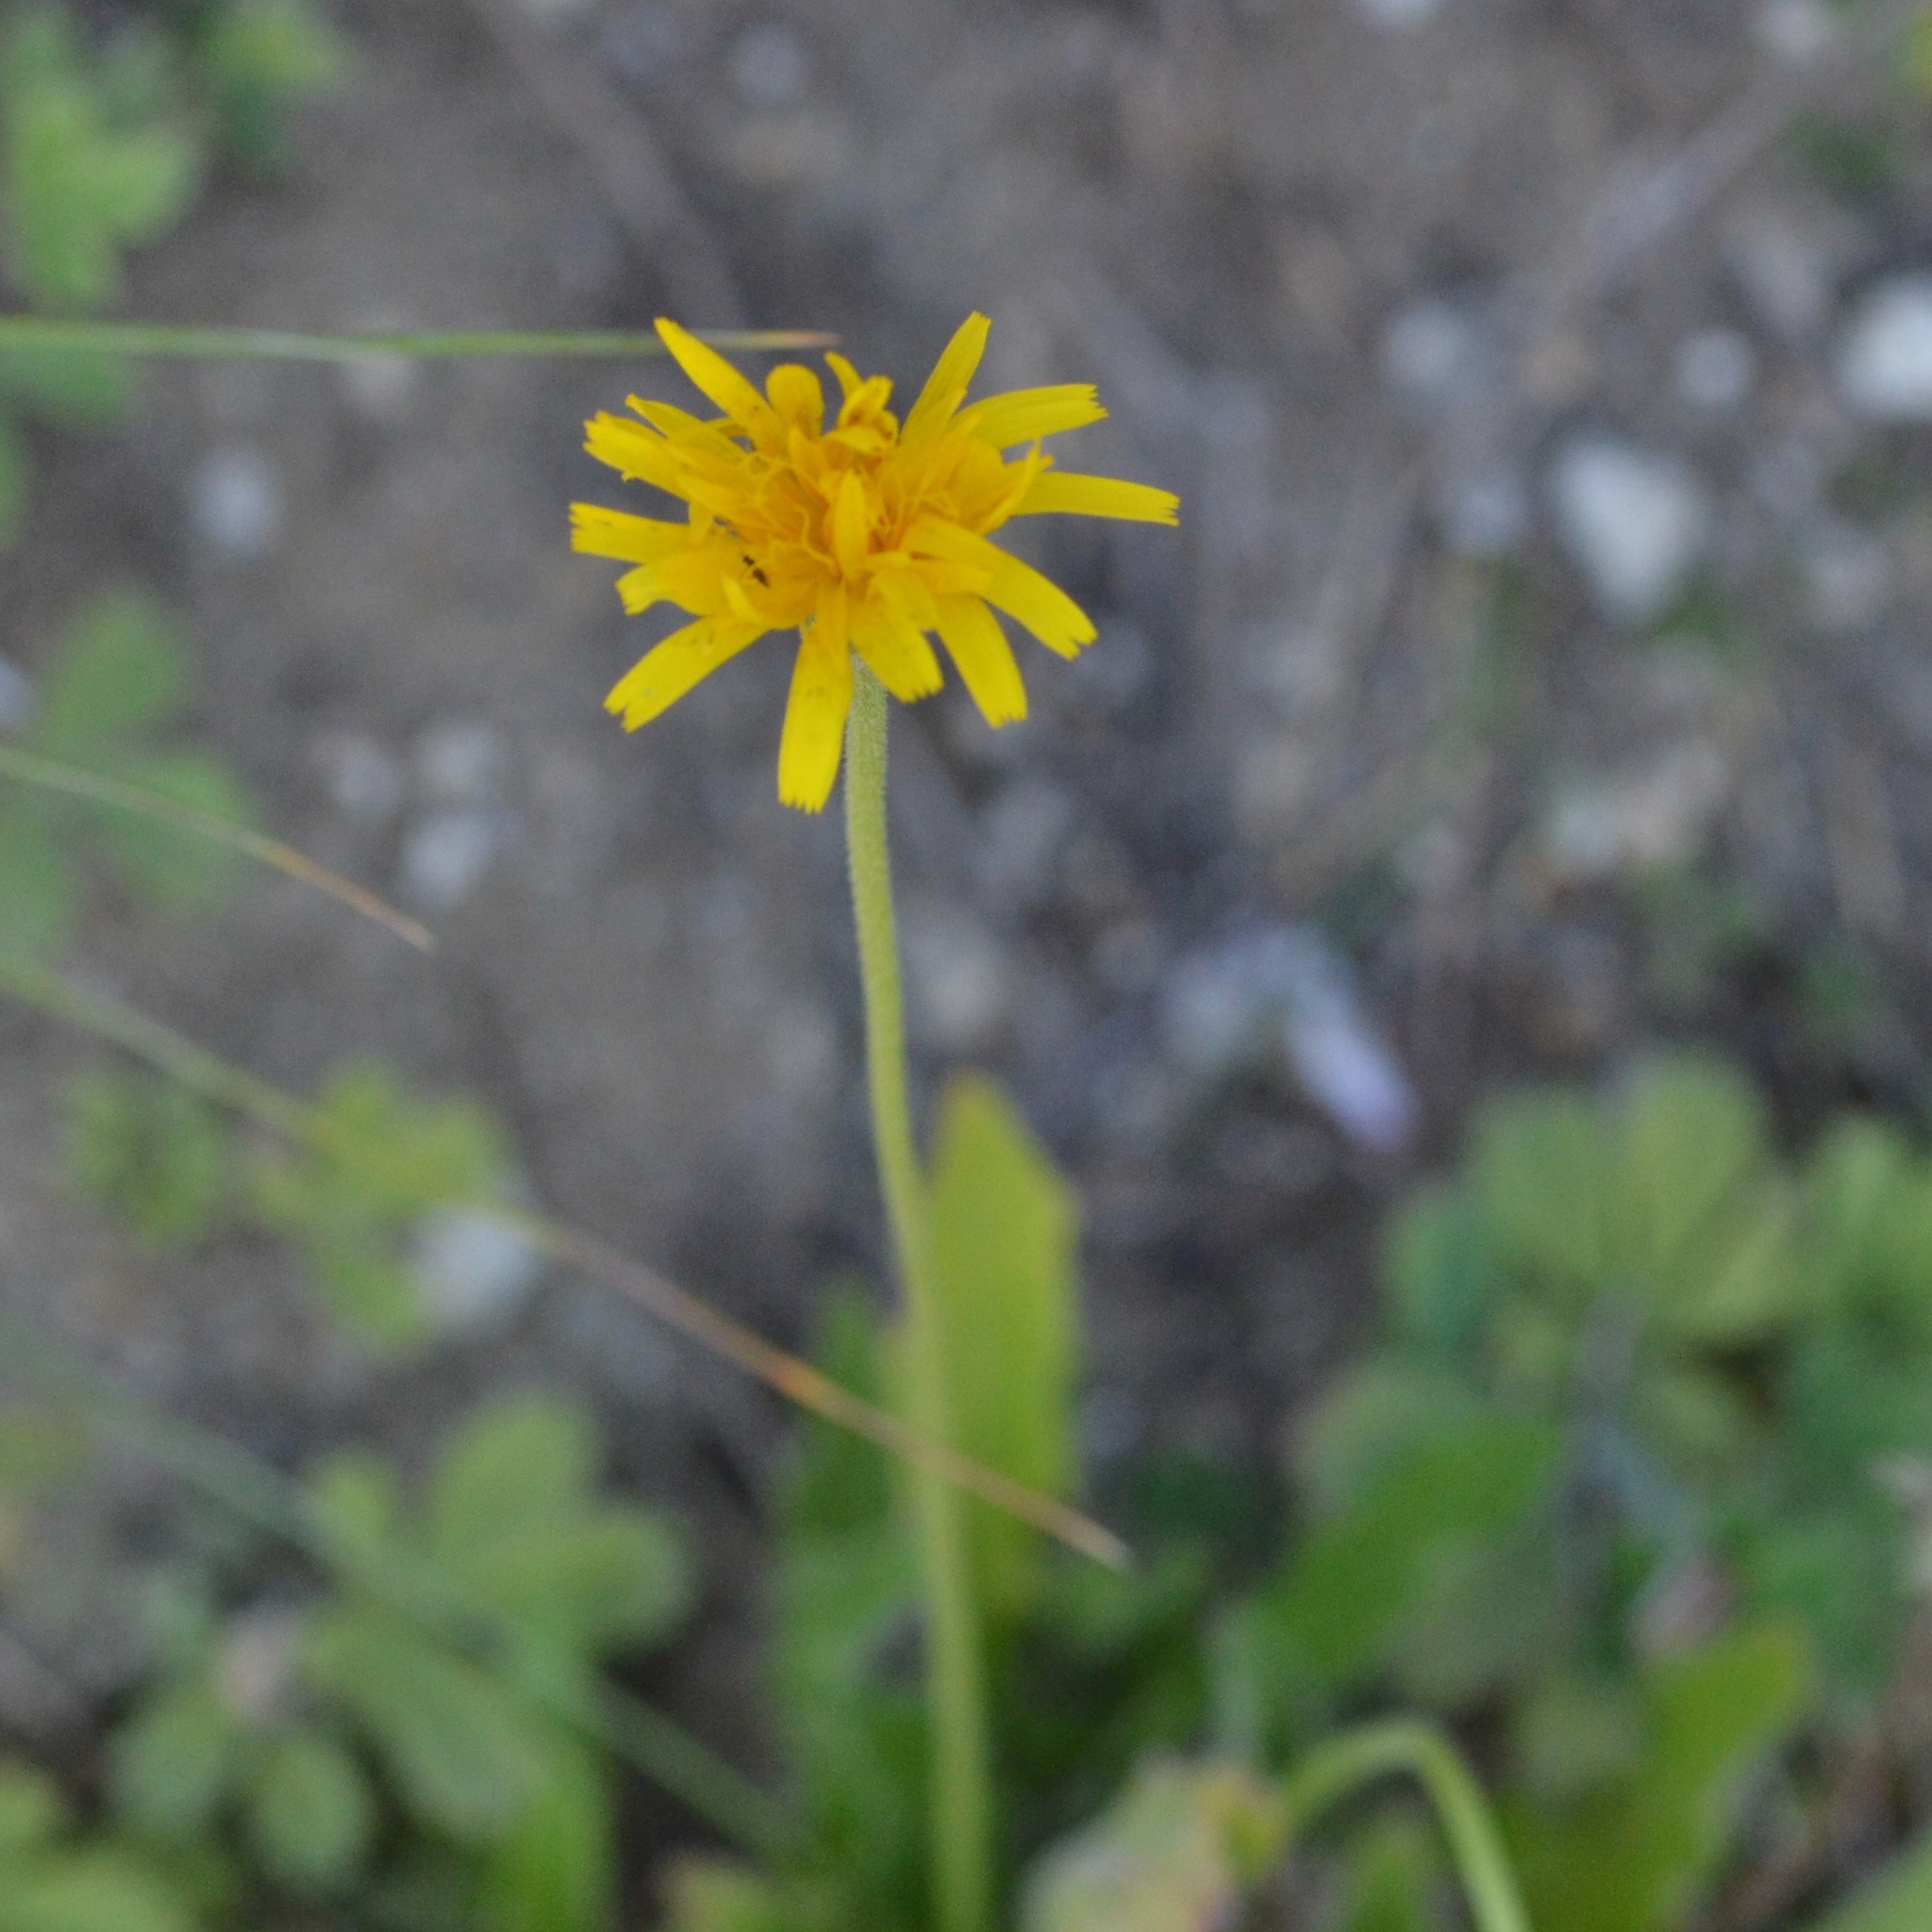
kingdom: Plantae
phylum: Tracheophyta
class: Magnoliopsida
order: Asterales
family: Asteraceae
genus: Leontodon
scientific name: Leontodon hispidus
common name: Rough hawkbit
